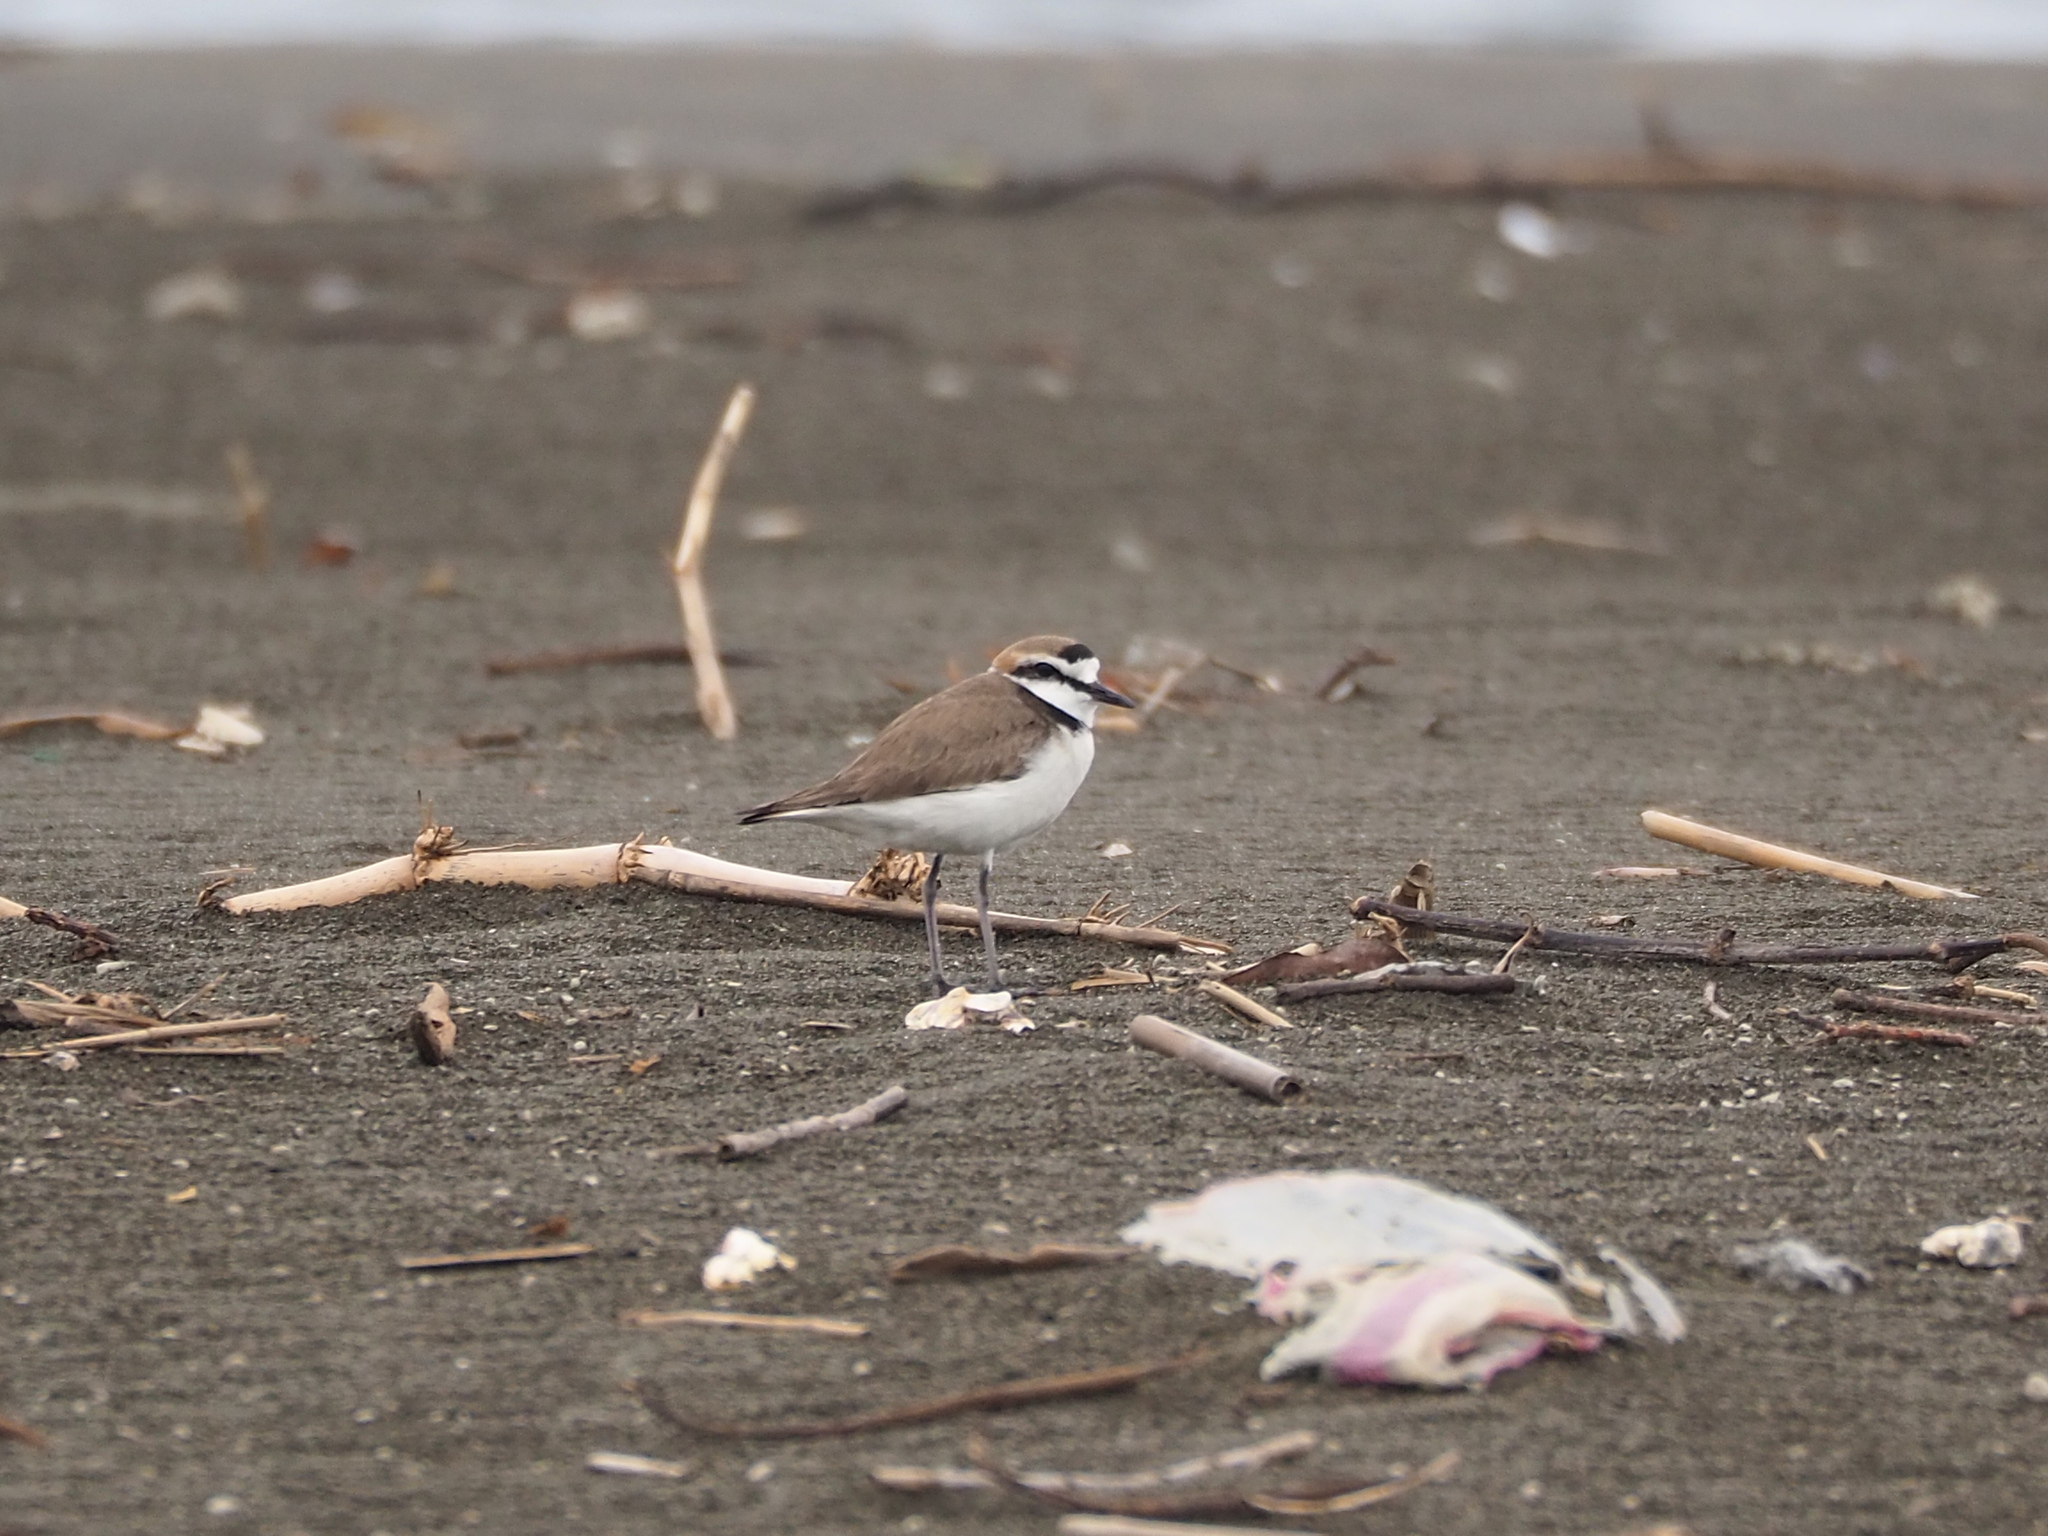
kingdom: Animalia
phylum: Chordata
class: Aves
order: Charadriiformes
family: Charadriidae
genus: Charadrius
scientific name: Charadrius alexandrinus
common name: Kentish plover
